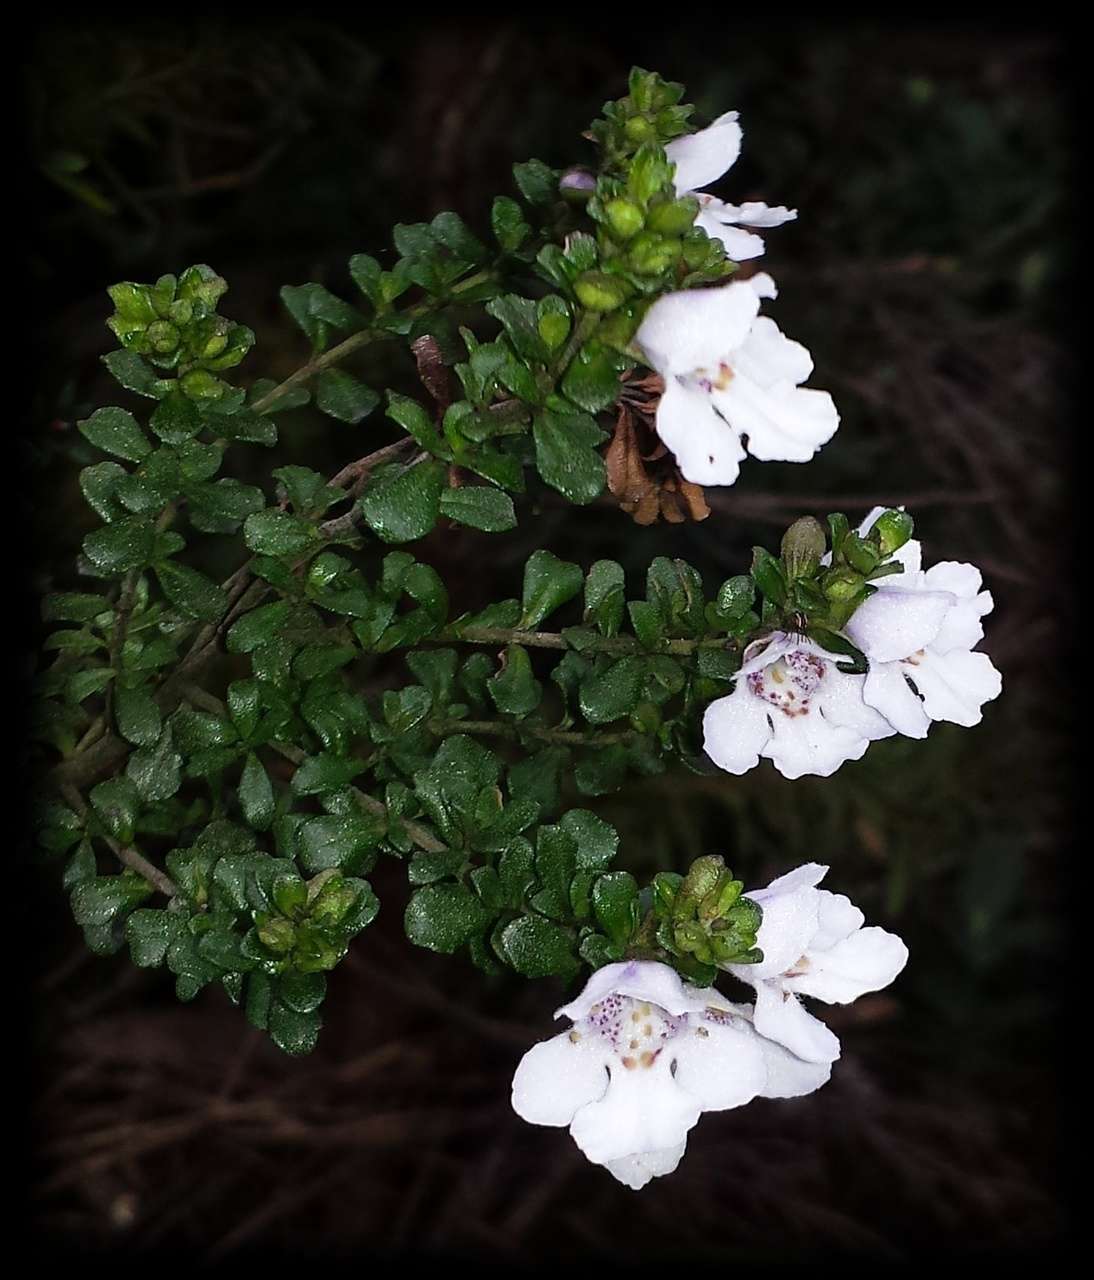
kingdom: Plantae
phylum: Tracheophyta
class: Magnoliopsida
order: Lamiales
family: Lamiaceae
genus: Prostanthera
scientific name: Prostanthera cuneata
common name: Alpine mintbush
